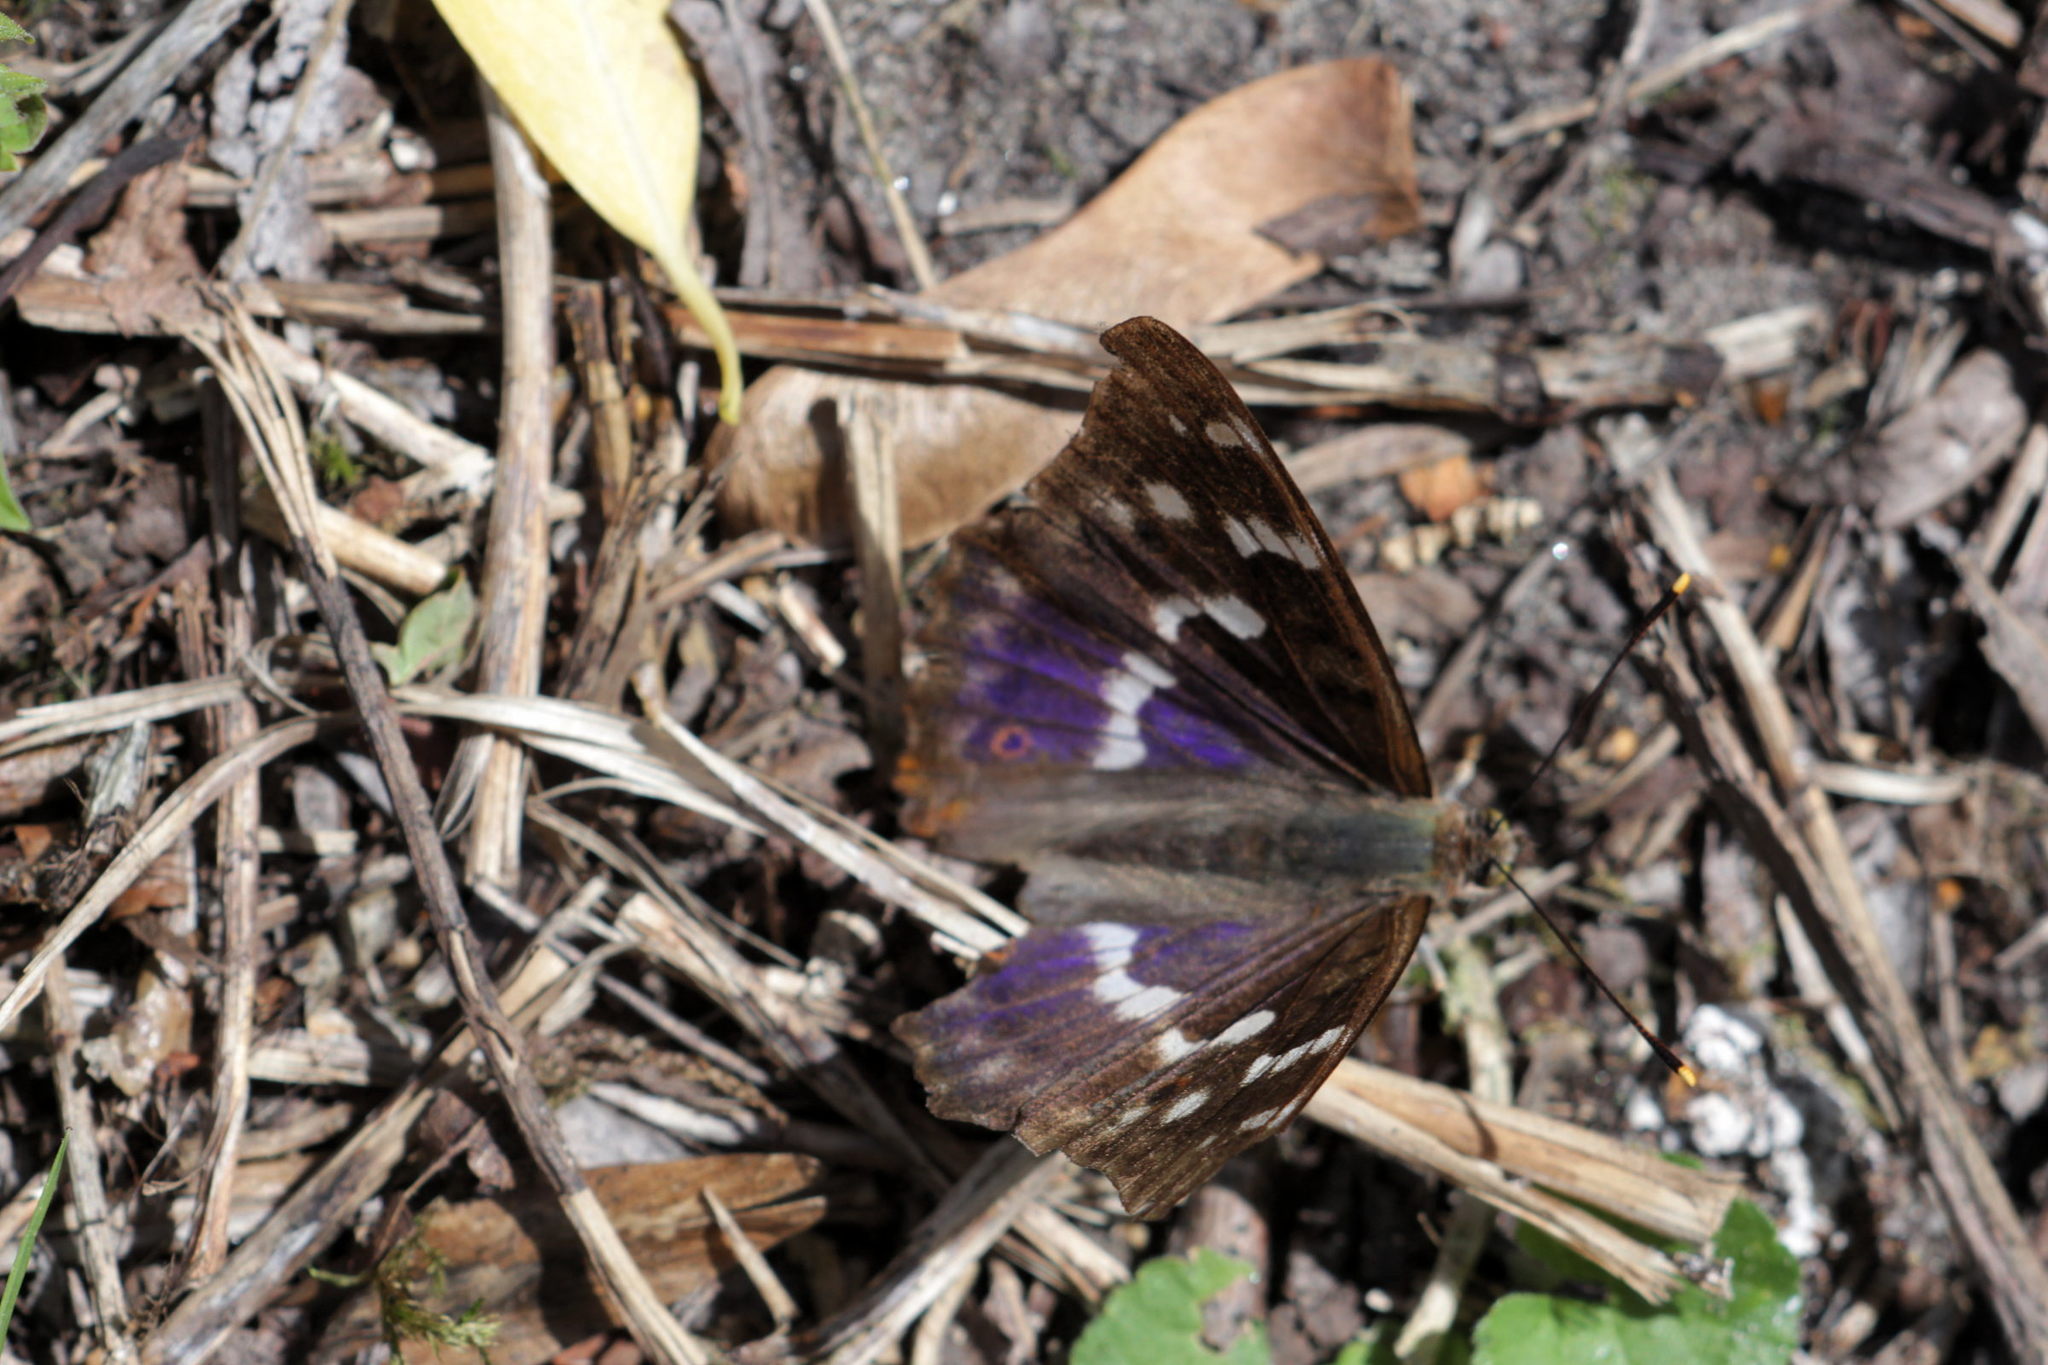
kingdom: Animalia
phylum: Arthropoda
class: Insecta
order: Lepidoptera
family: Nymphalidae
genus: Apatura
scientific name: Apatura ilia
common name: Lesser purple emperor
